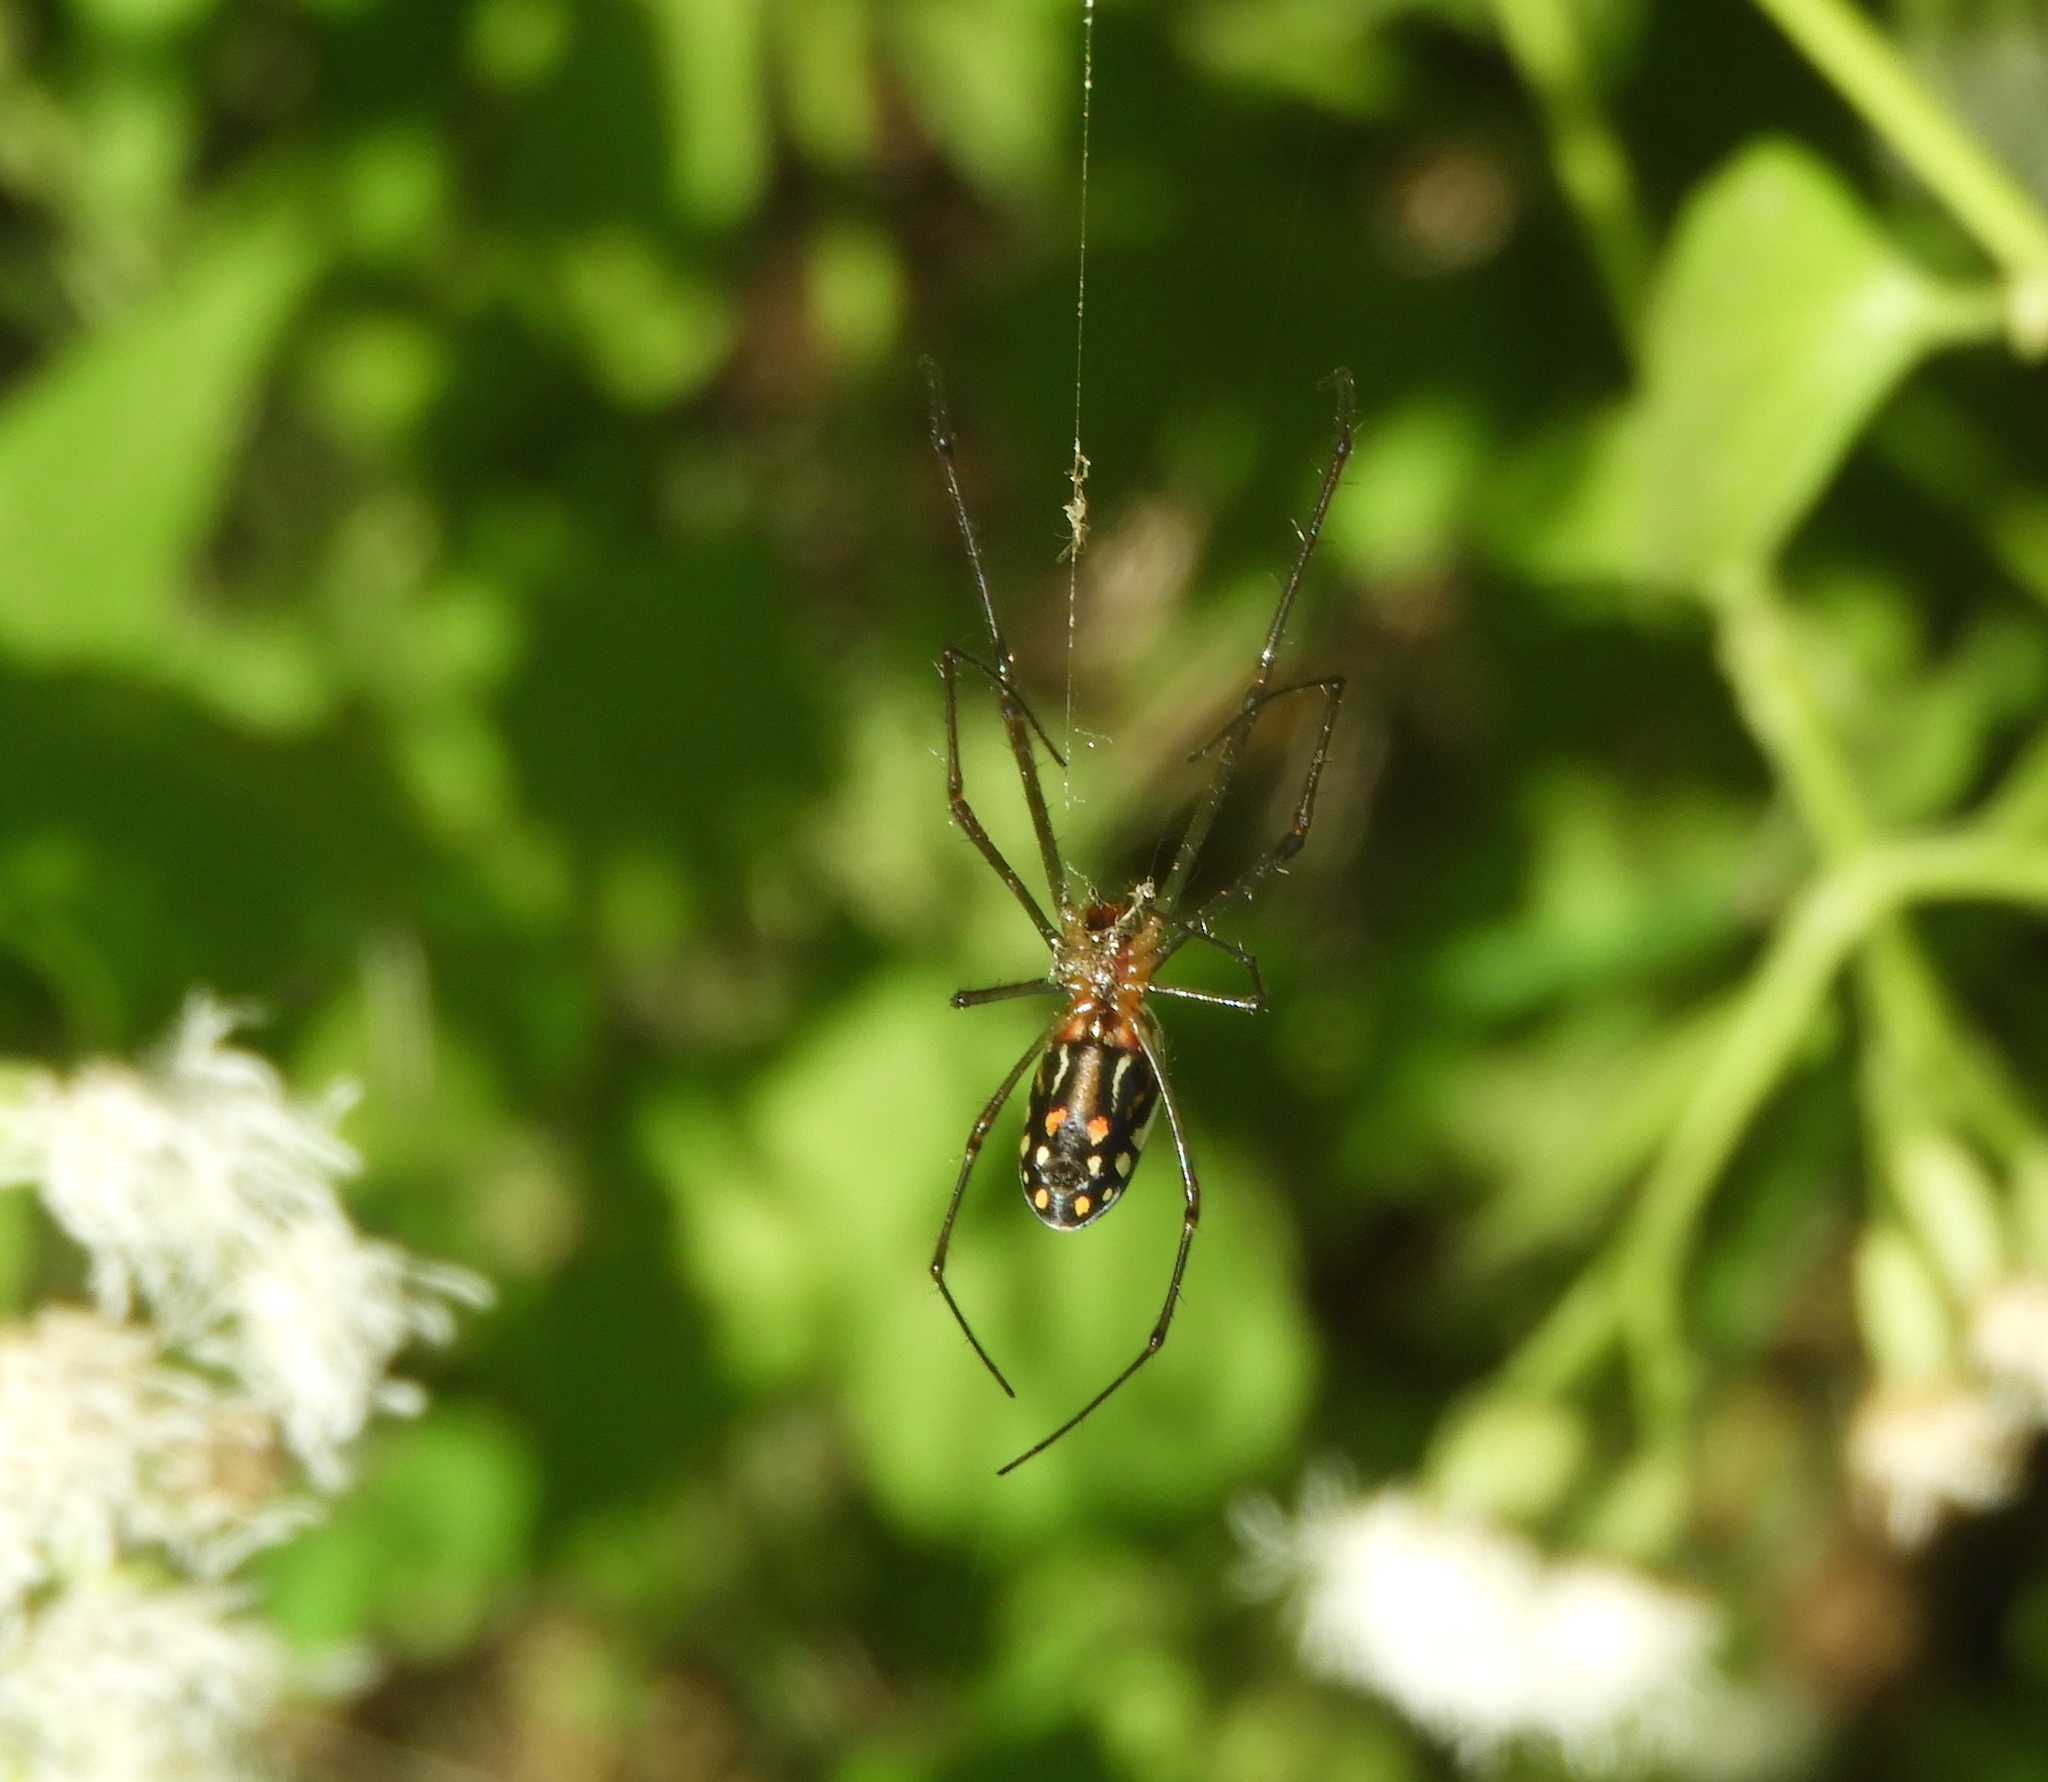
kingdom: Animalia
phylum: Arthropoda
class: Arachnida
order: Araneae
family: Tetragnathidae
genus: Leucauge
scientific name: Leucauge argyra
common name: Longjawed orb weavers
